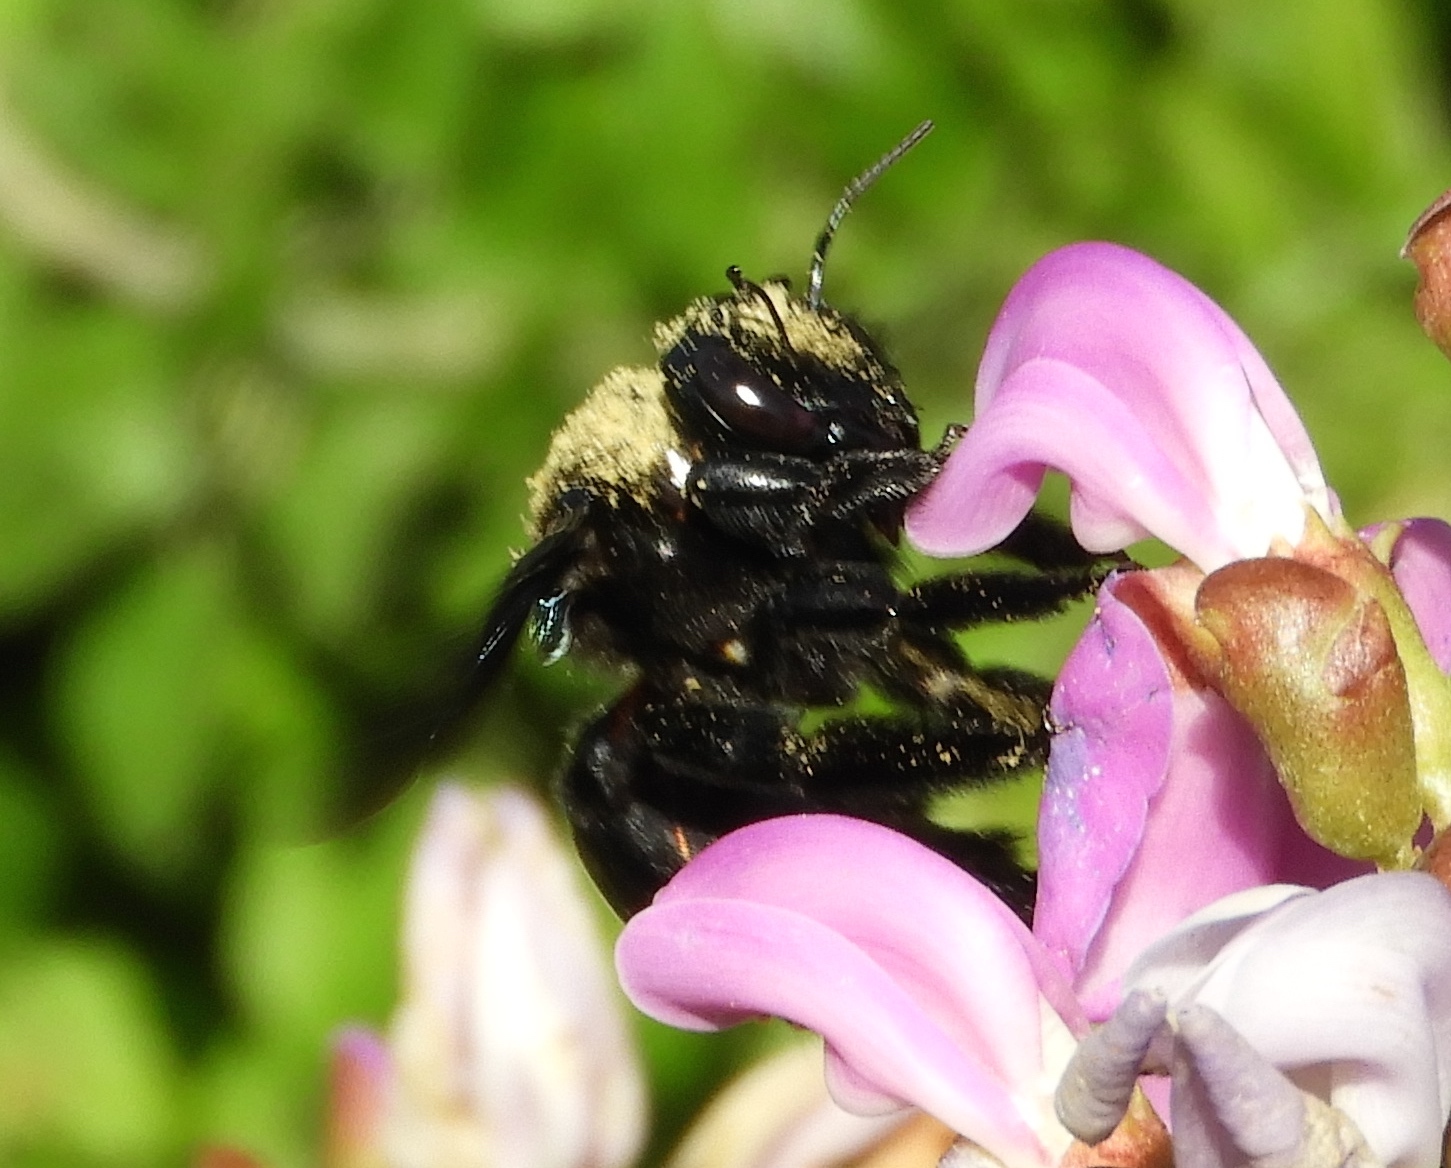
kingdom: Animalia
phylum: Arthropoda
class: Insecta
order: Hymenoptera
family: Apidae
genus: Xylocopa
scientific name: Xylocopa fimbriata
